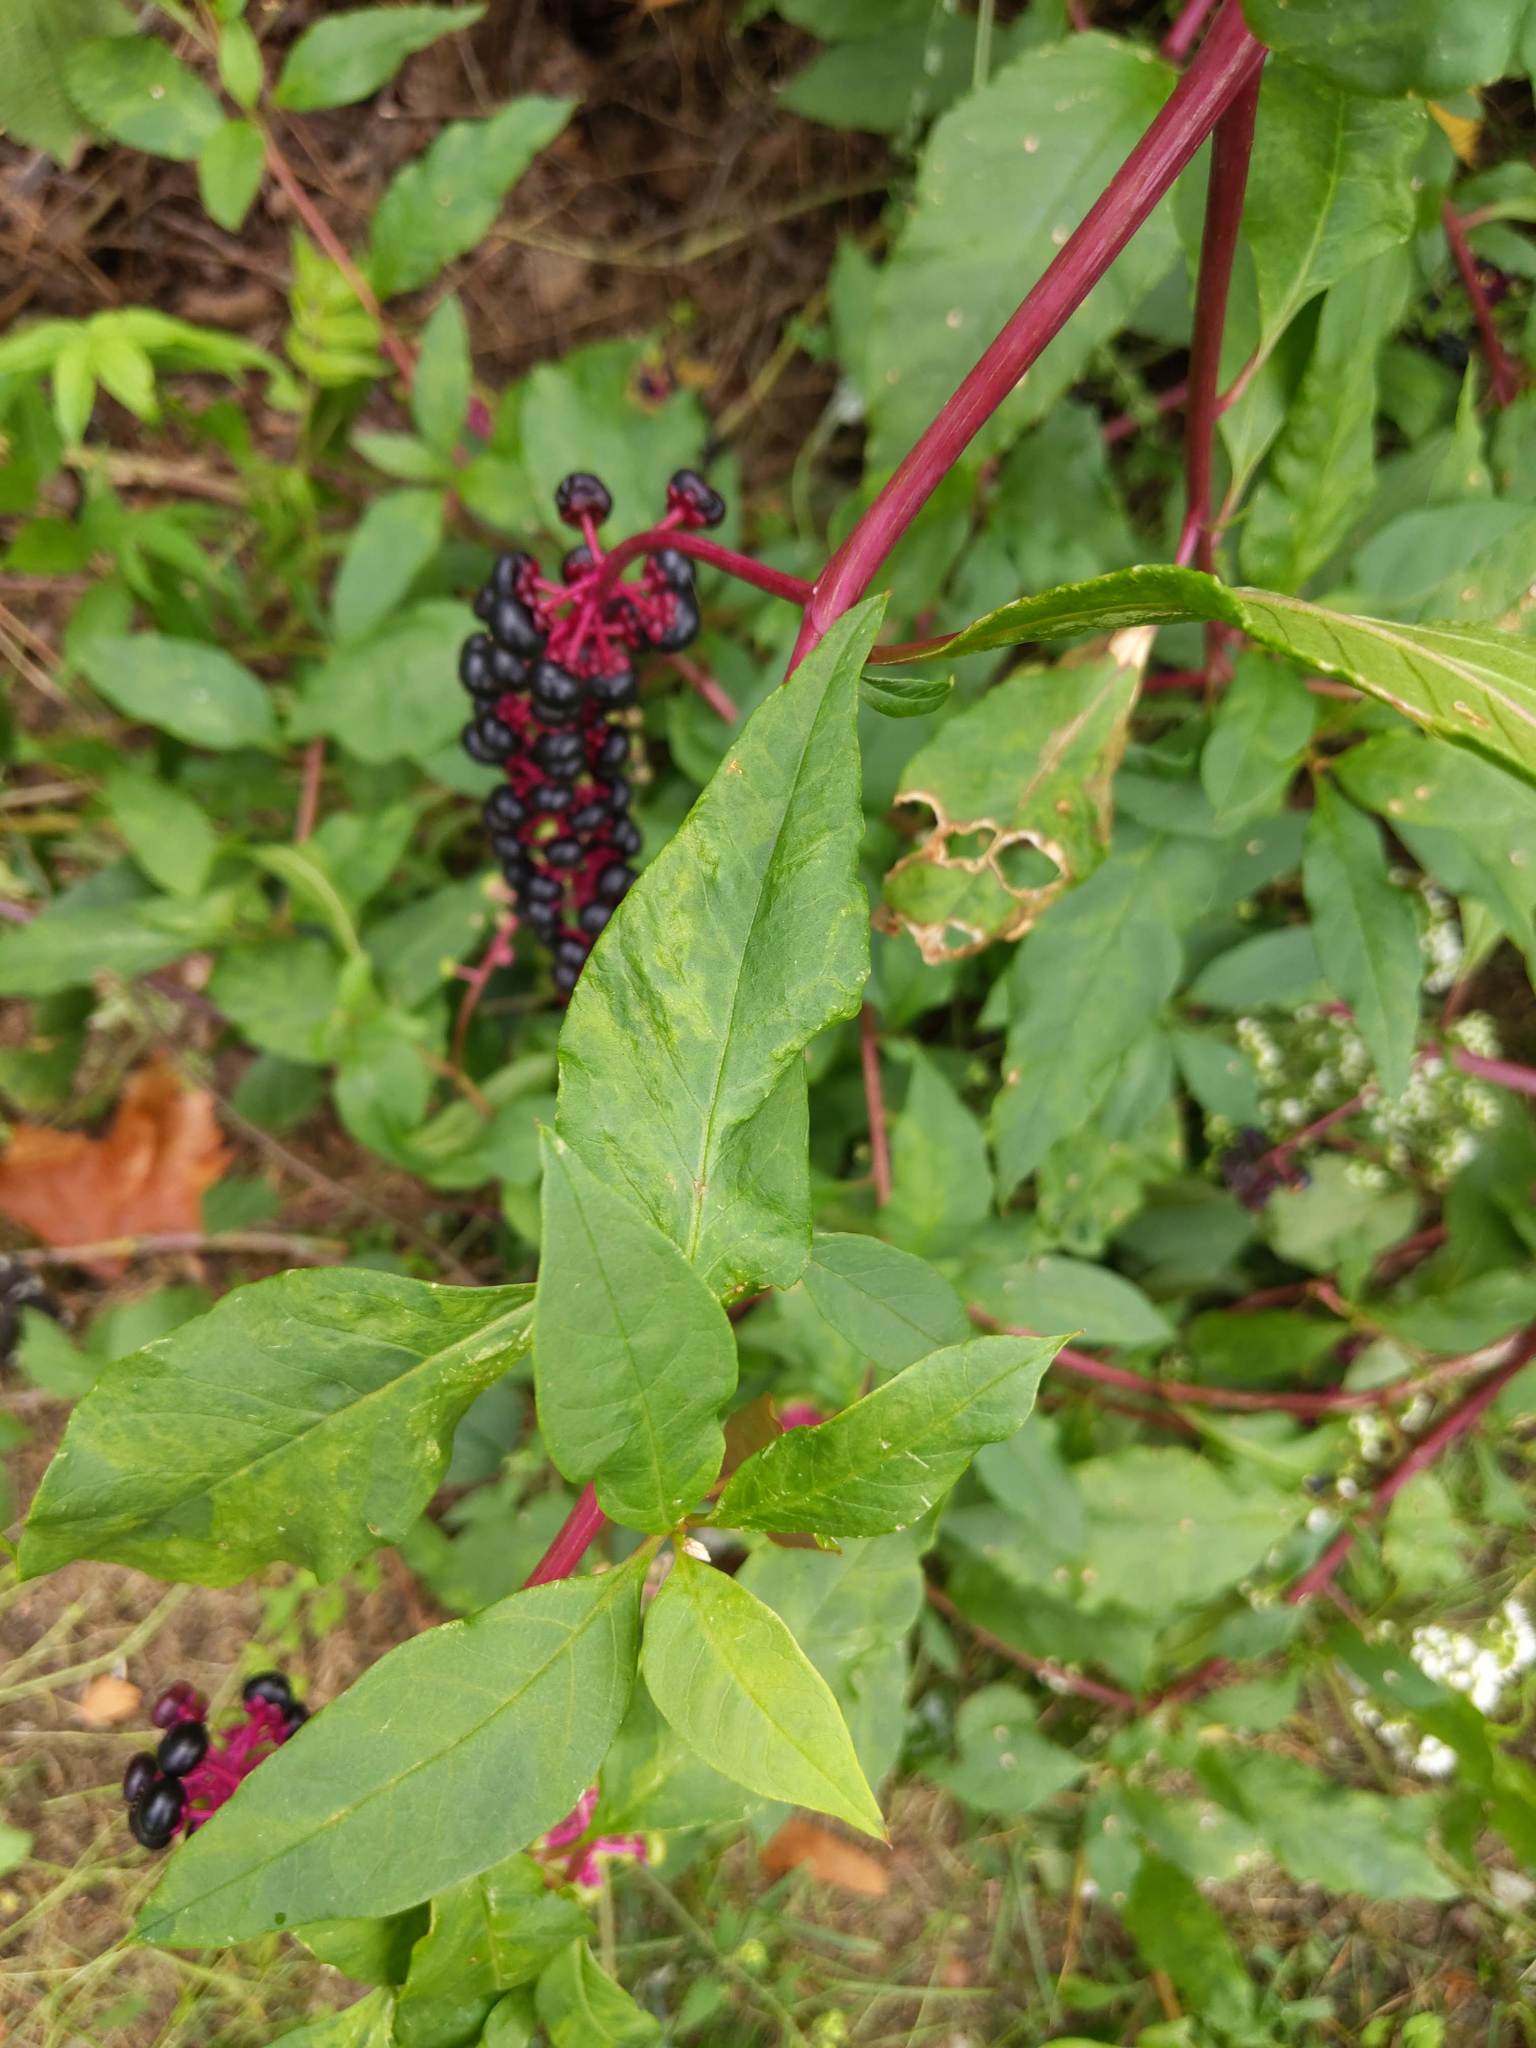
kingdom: Viruses
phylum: Pisuviricota
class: Stelpaviricetes
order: Patatavirales
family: Potyviridae
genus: Potyvirus
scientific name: Potyvirus Pokeweed mosaic virus
